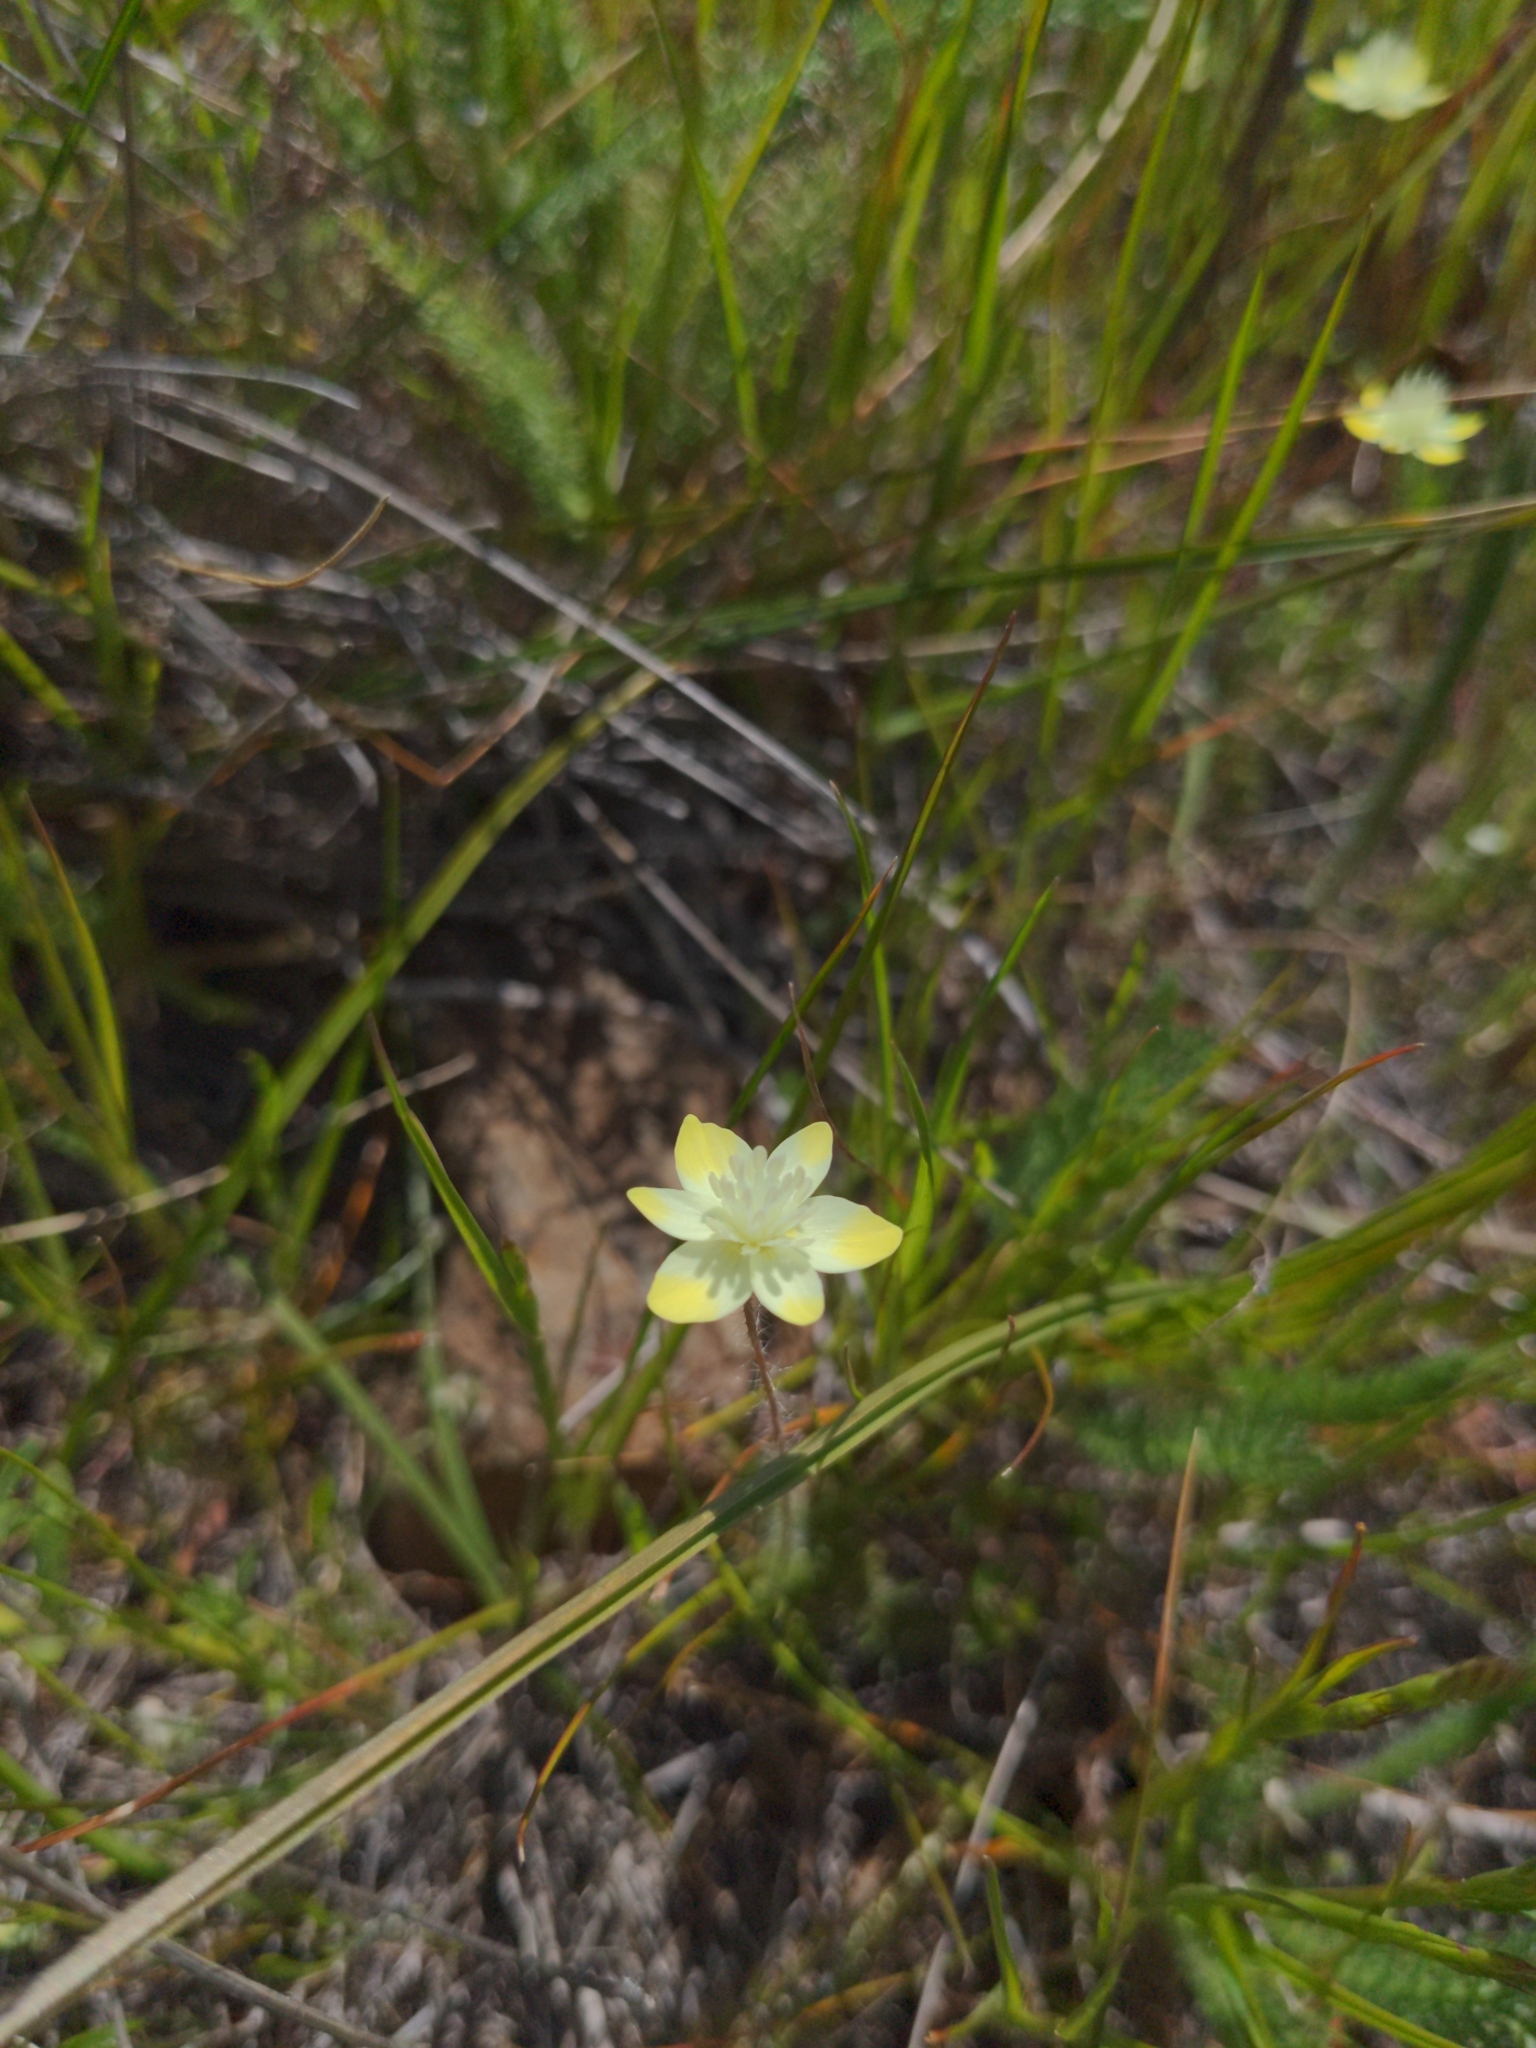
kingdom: Plantae
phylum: Tracheophyta
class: Magnoliopsida
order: Ranunculales
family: Papaveraceae
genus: Platystemon
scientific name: Platystemon californicus
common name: Cream-cups
